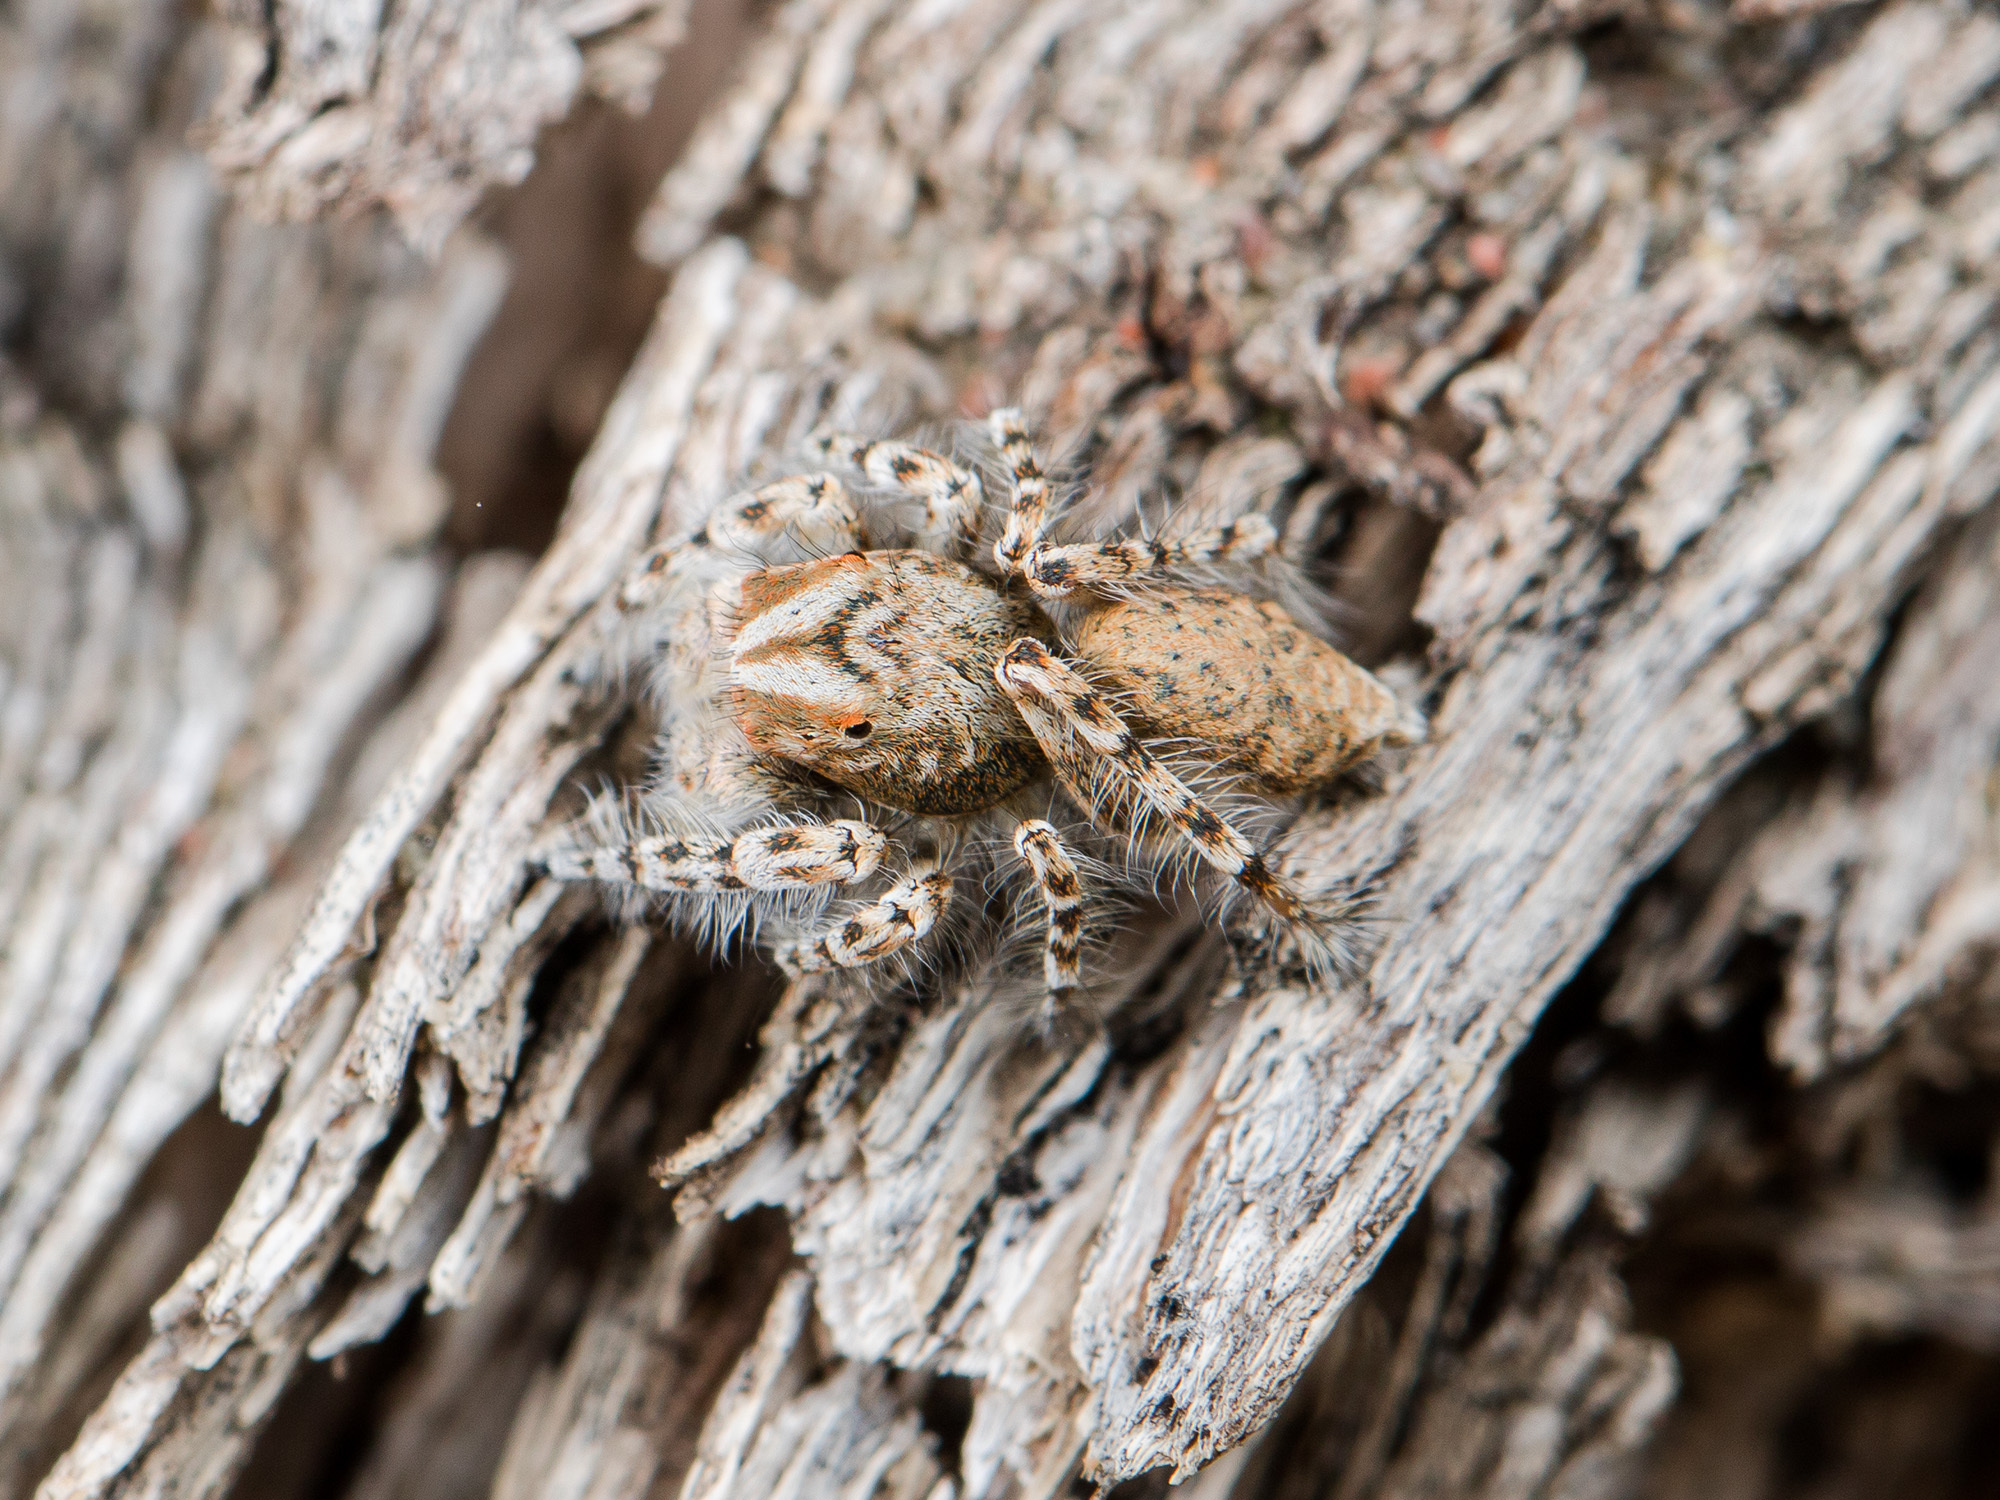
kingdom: Animalia
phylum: Arthropoda
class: Arachnida
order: Araneae
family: Salticidae
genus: Yllenus
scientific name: Yllenus uiguricus
